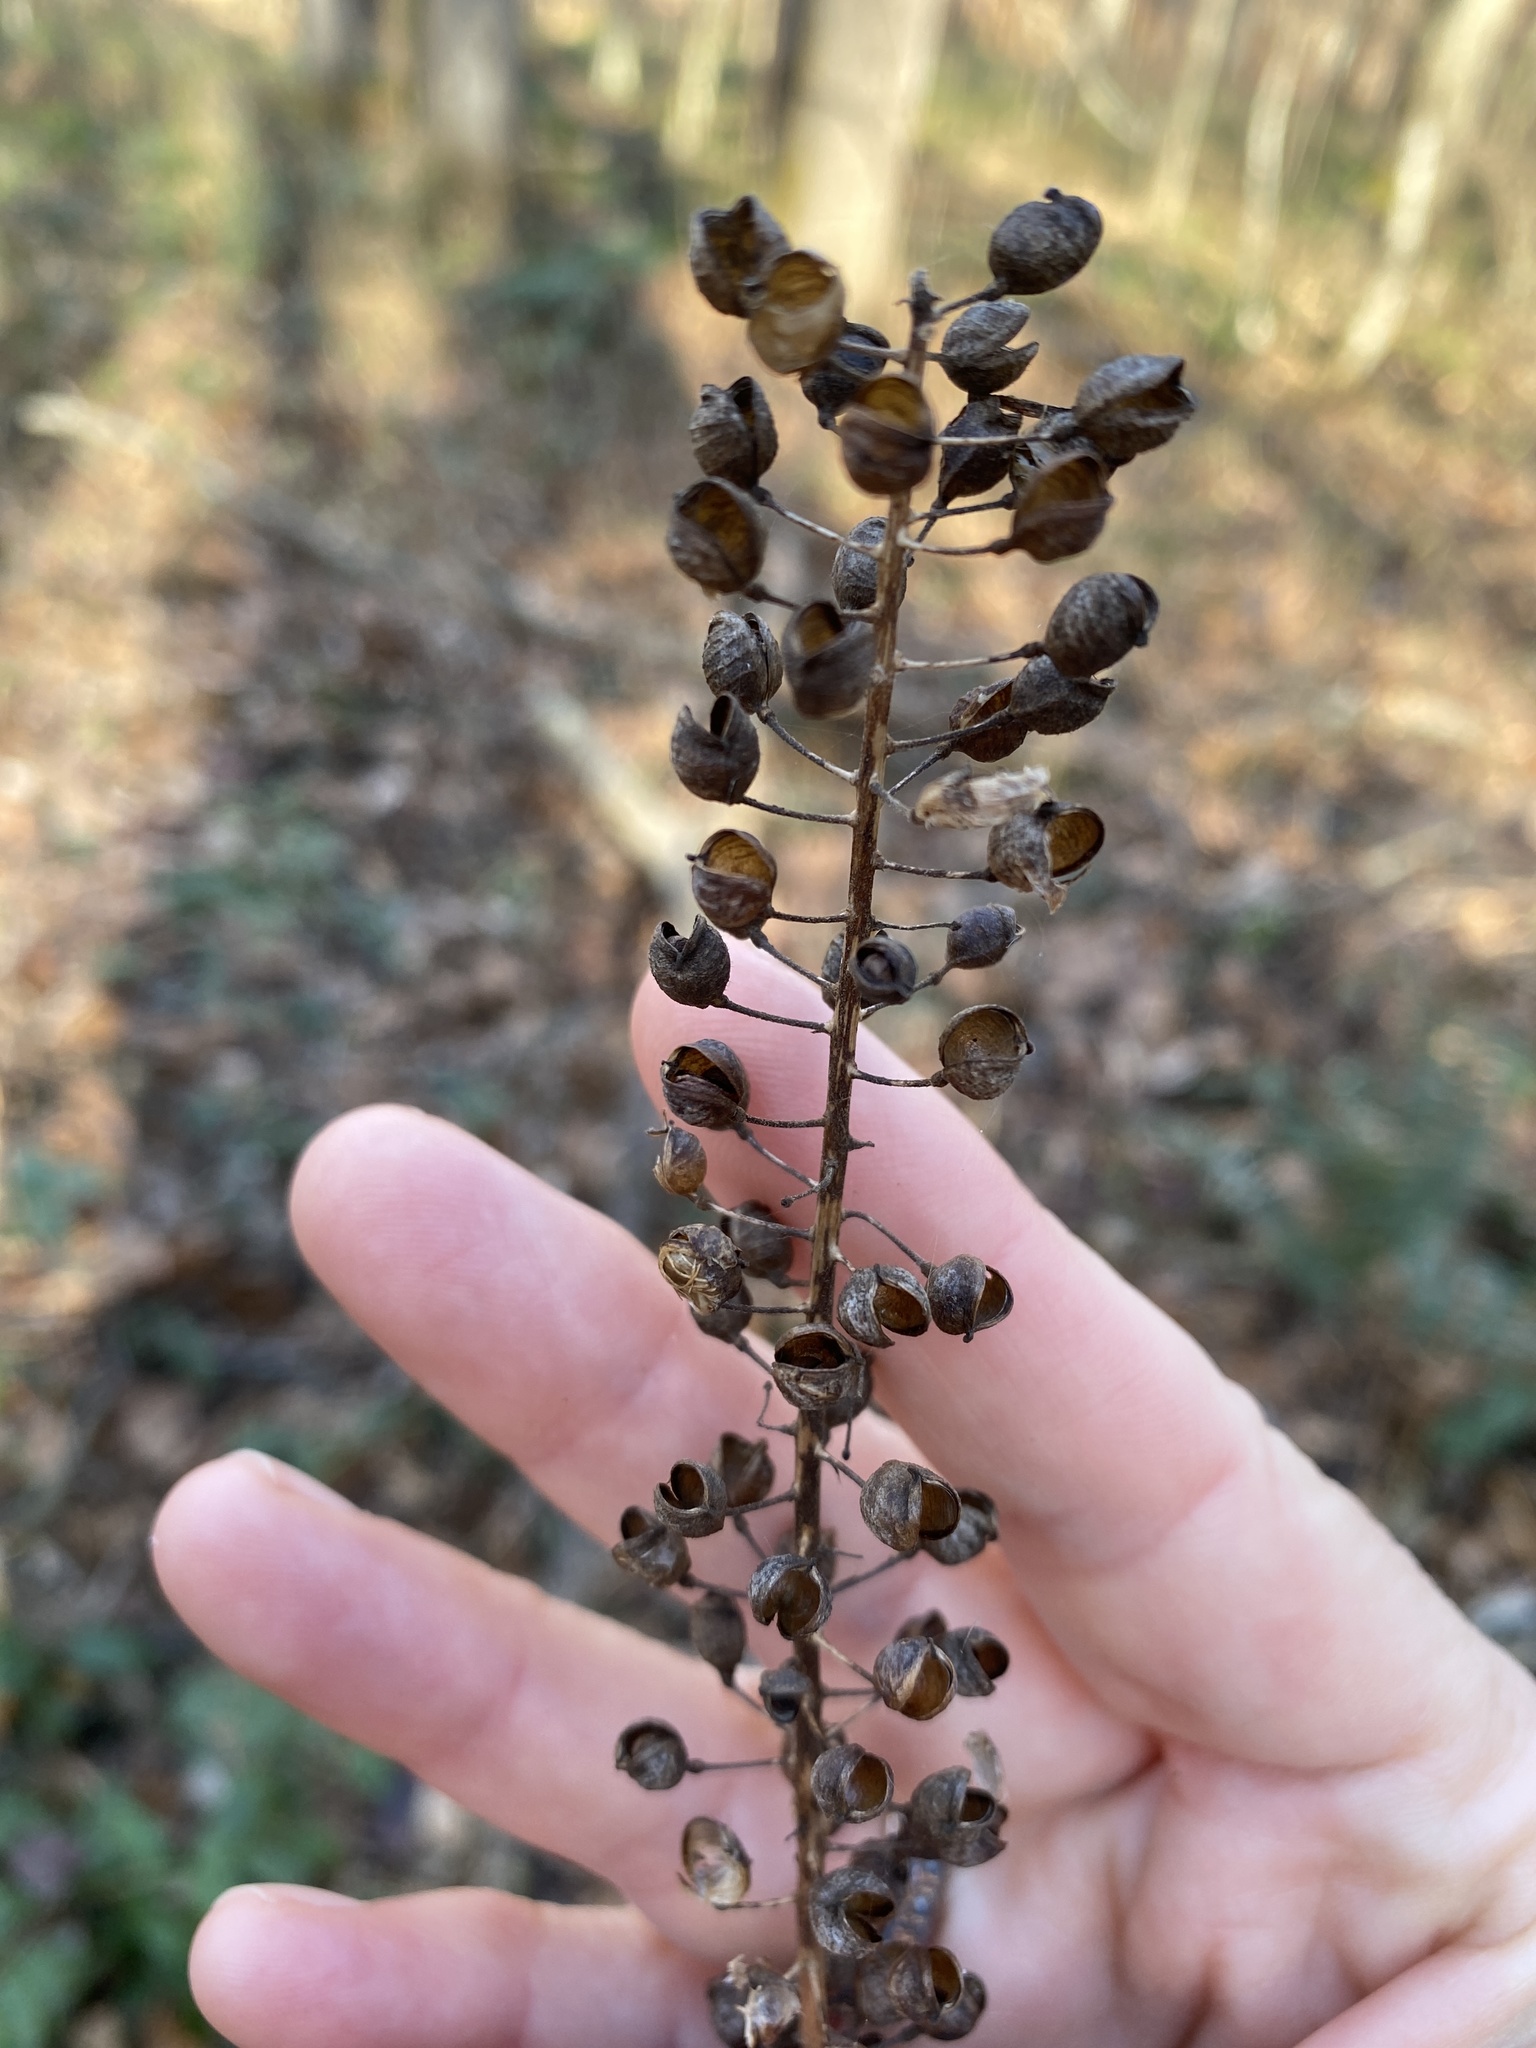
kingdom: Plantae
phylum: Tracheophyta
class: Magnoliopsida
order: Ranunculales
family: Ranunculaceae
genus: Actaea
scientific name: Actaea racemosa
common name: Black cohosh
